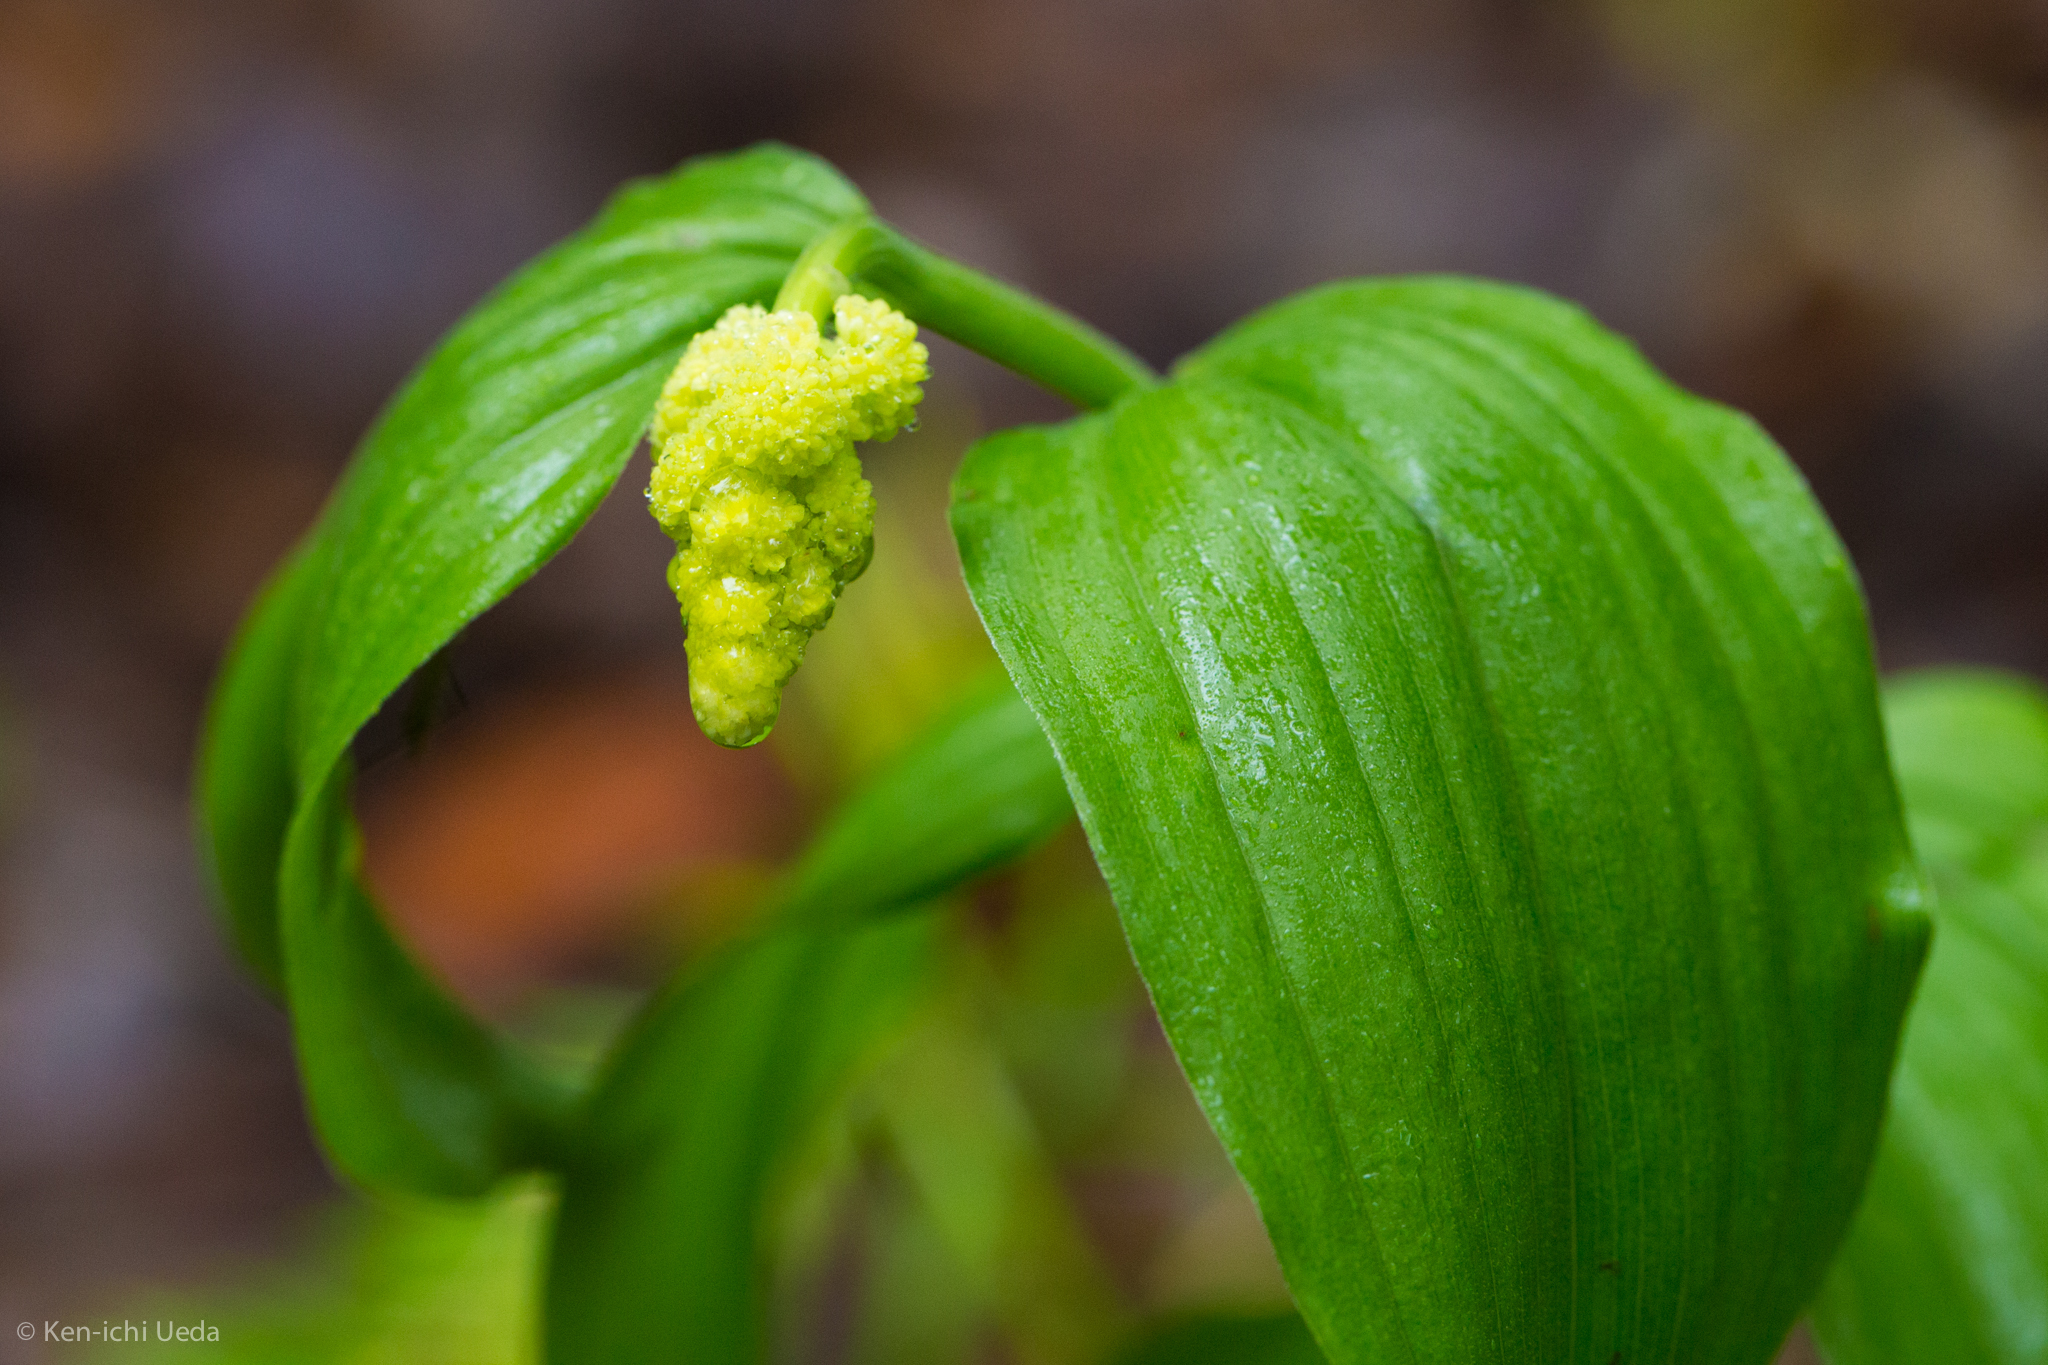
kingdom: Plantae
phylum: Tracheophyta
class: Liliopsida
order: Asparagales
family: Asparagaceae
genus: Maianthemum
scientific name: Maianthemum racemosum
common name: False spikenard
